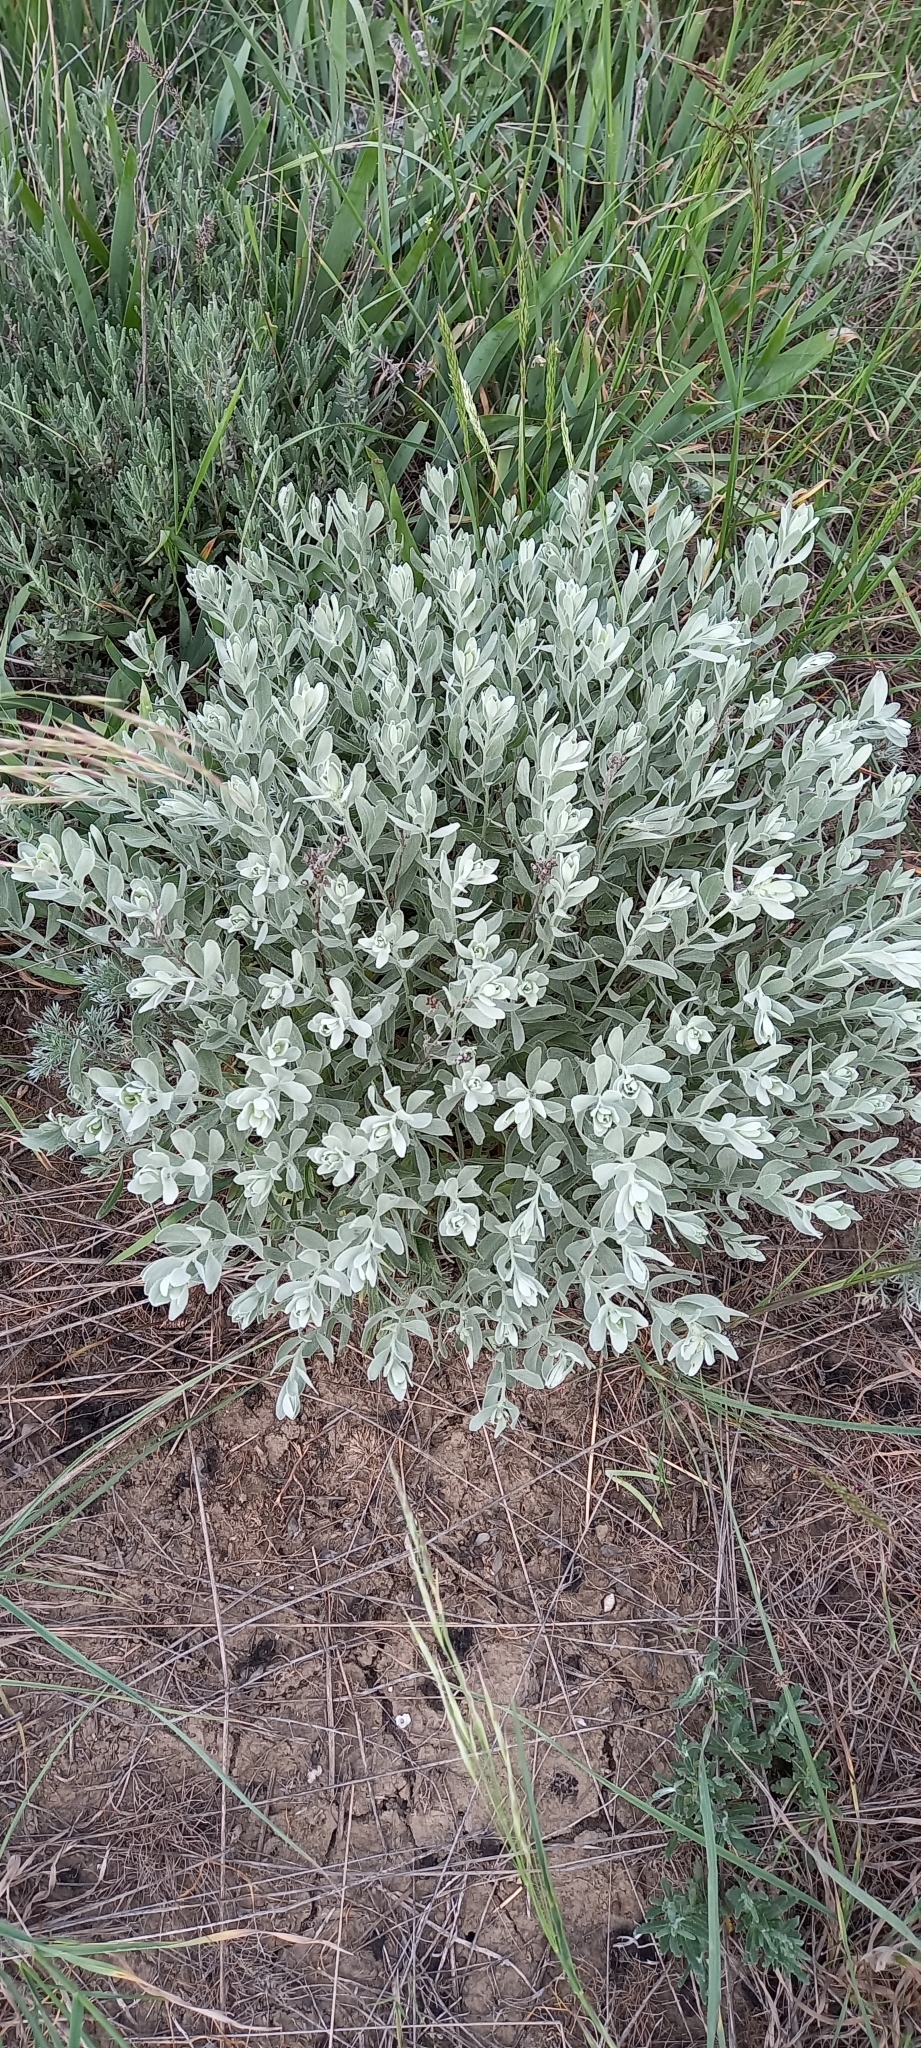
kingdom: Plantae
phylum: Tracheophyta
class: Magnoliopsida
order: Asterales
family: Asteraceae
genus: Galatella
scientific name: Galatella villosa
